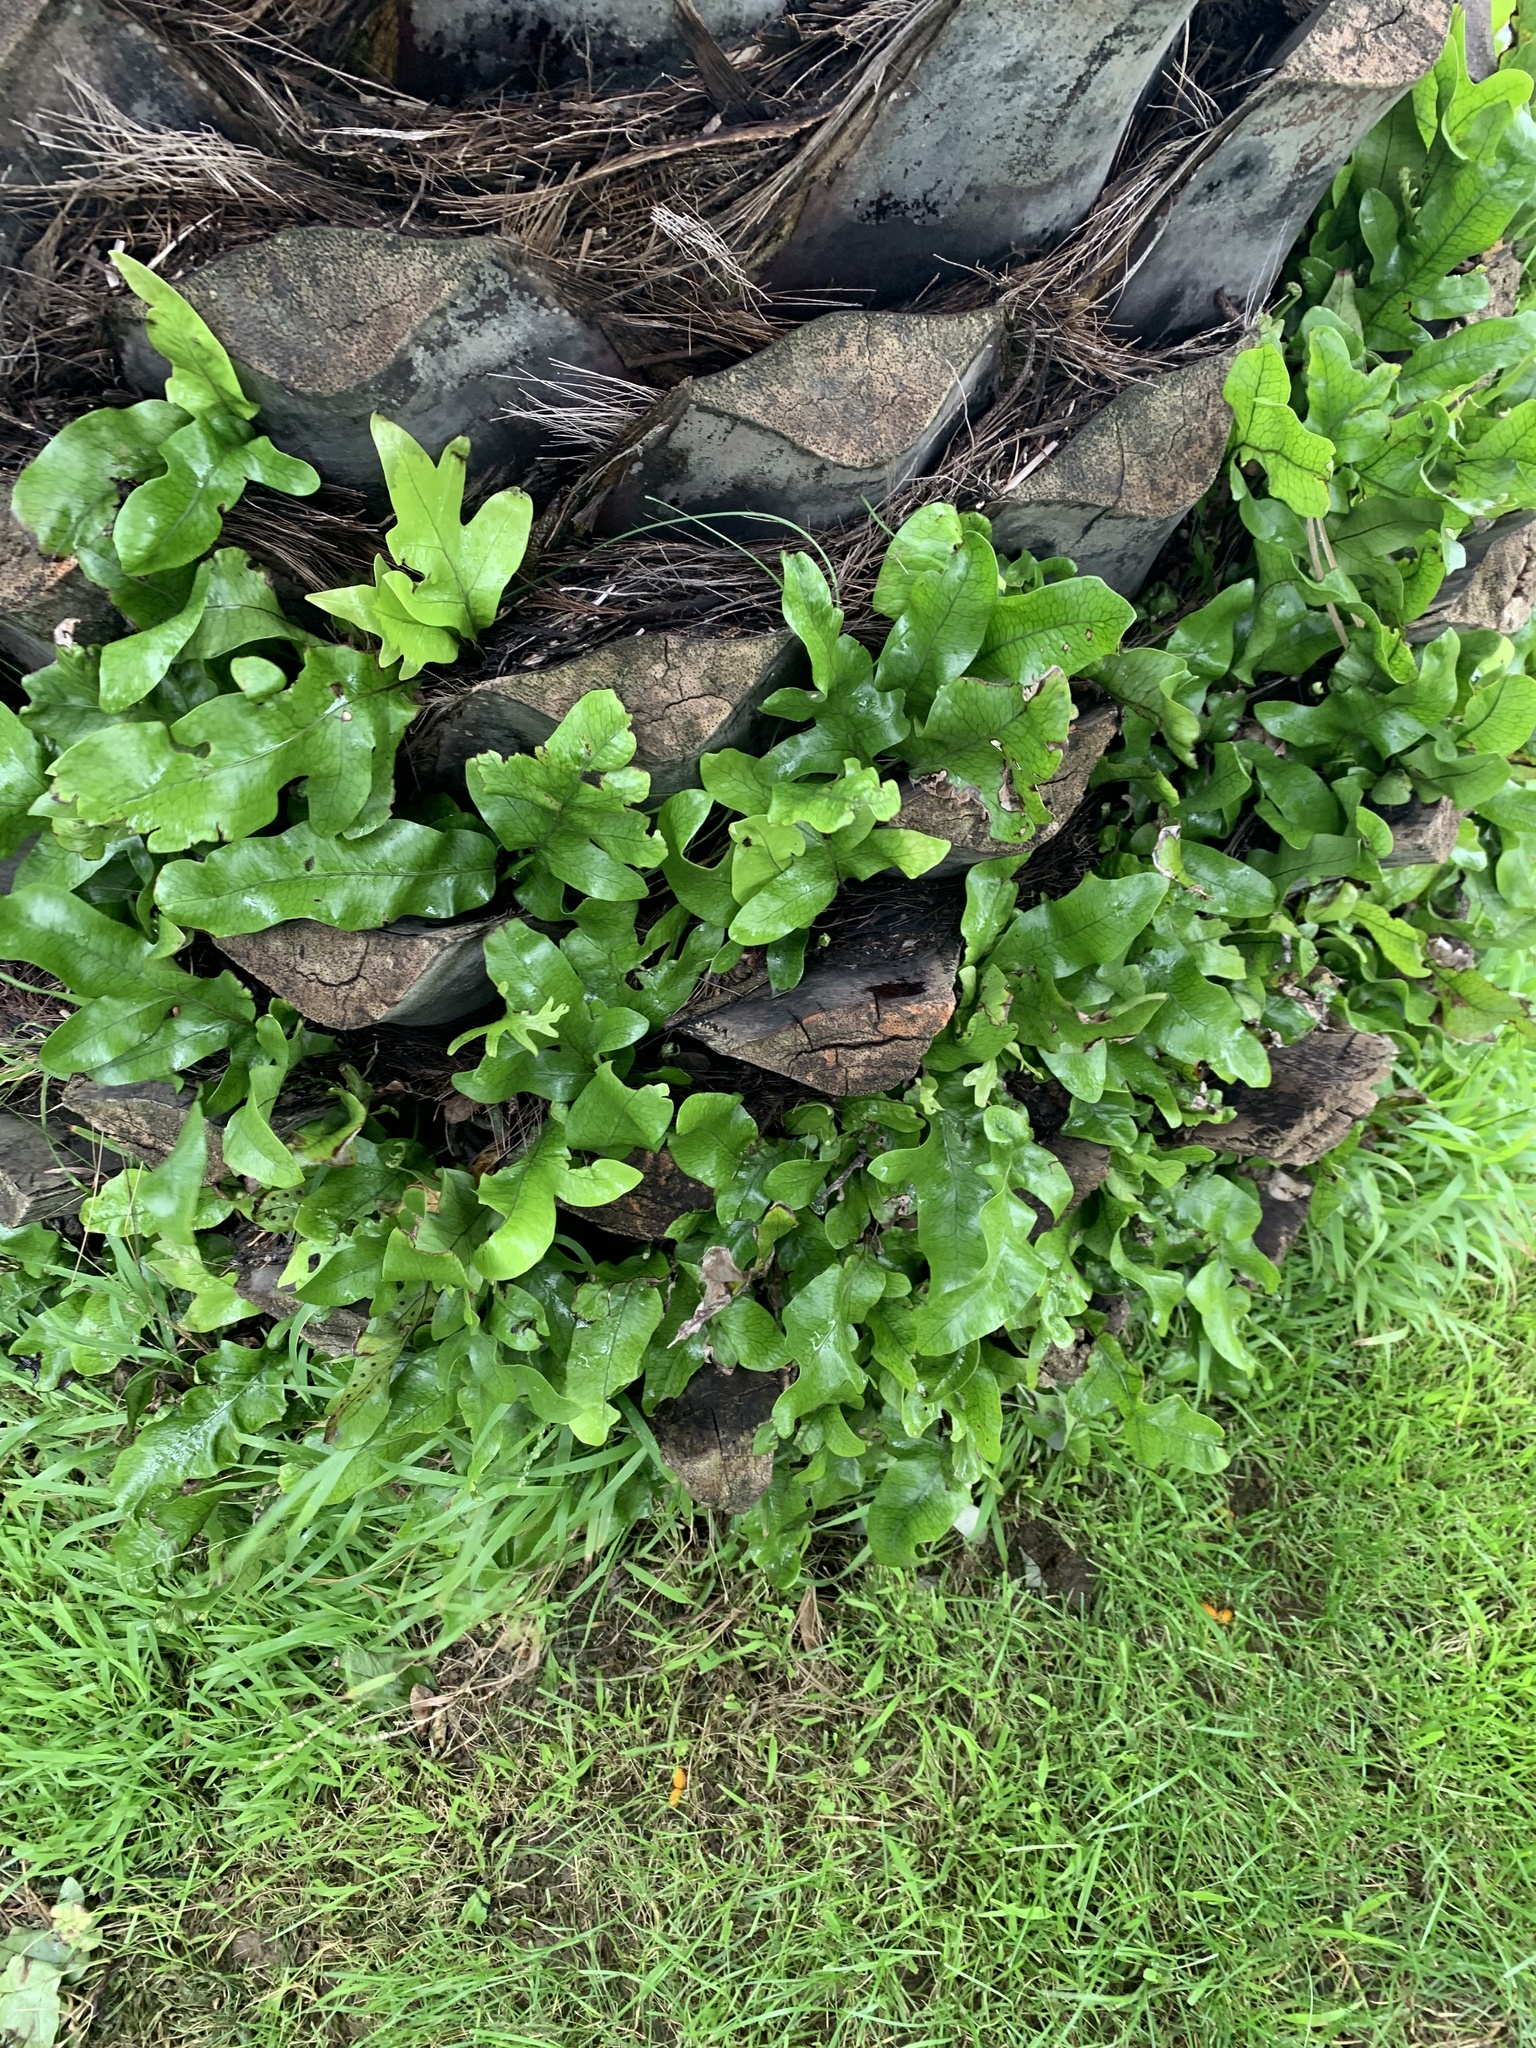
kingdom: Plantae
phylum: Tracheophyta
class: Polypodiopsida
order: Polypodiales
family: Polypodiaceae
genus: Lecanopteris
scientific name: Lecanopteris pustulata
